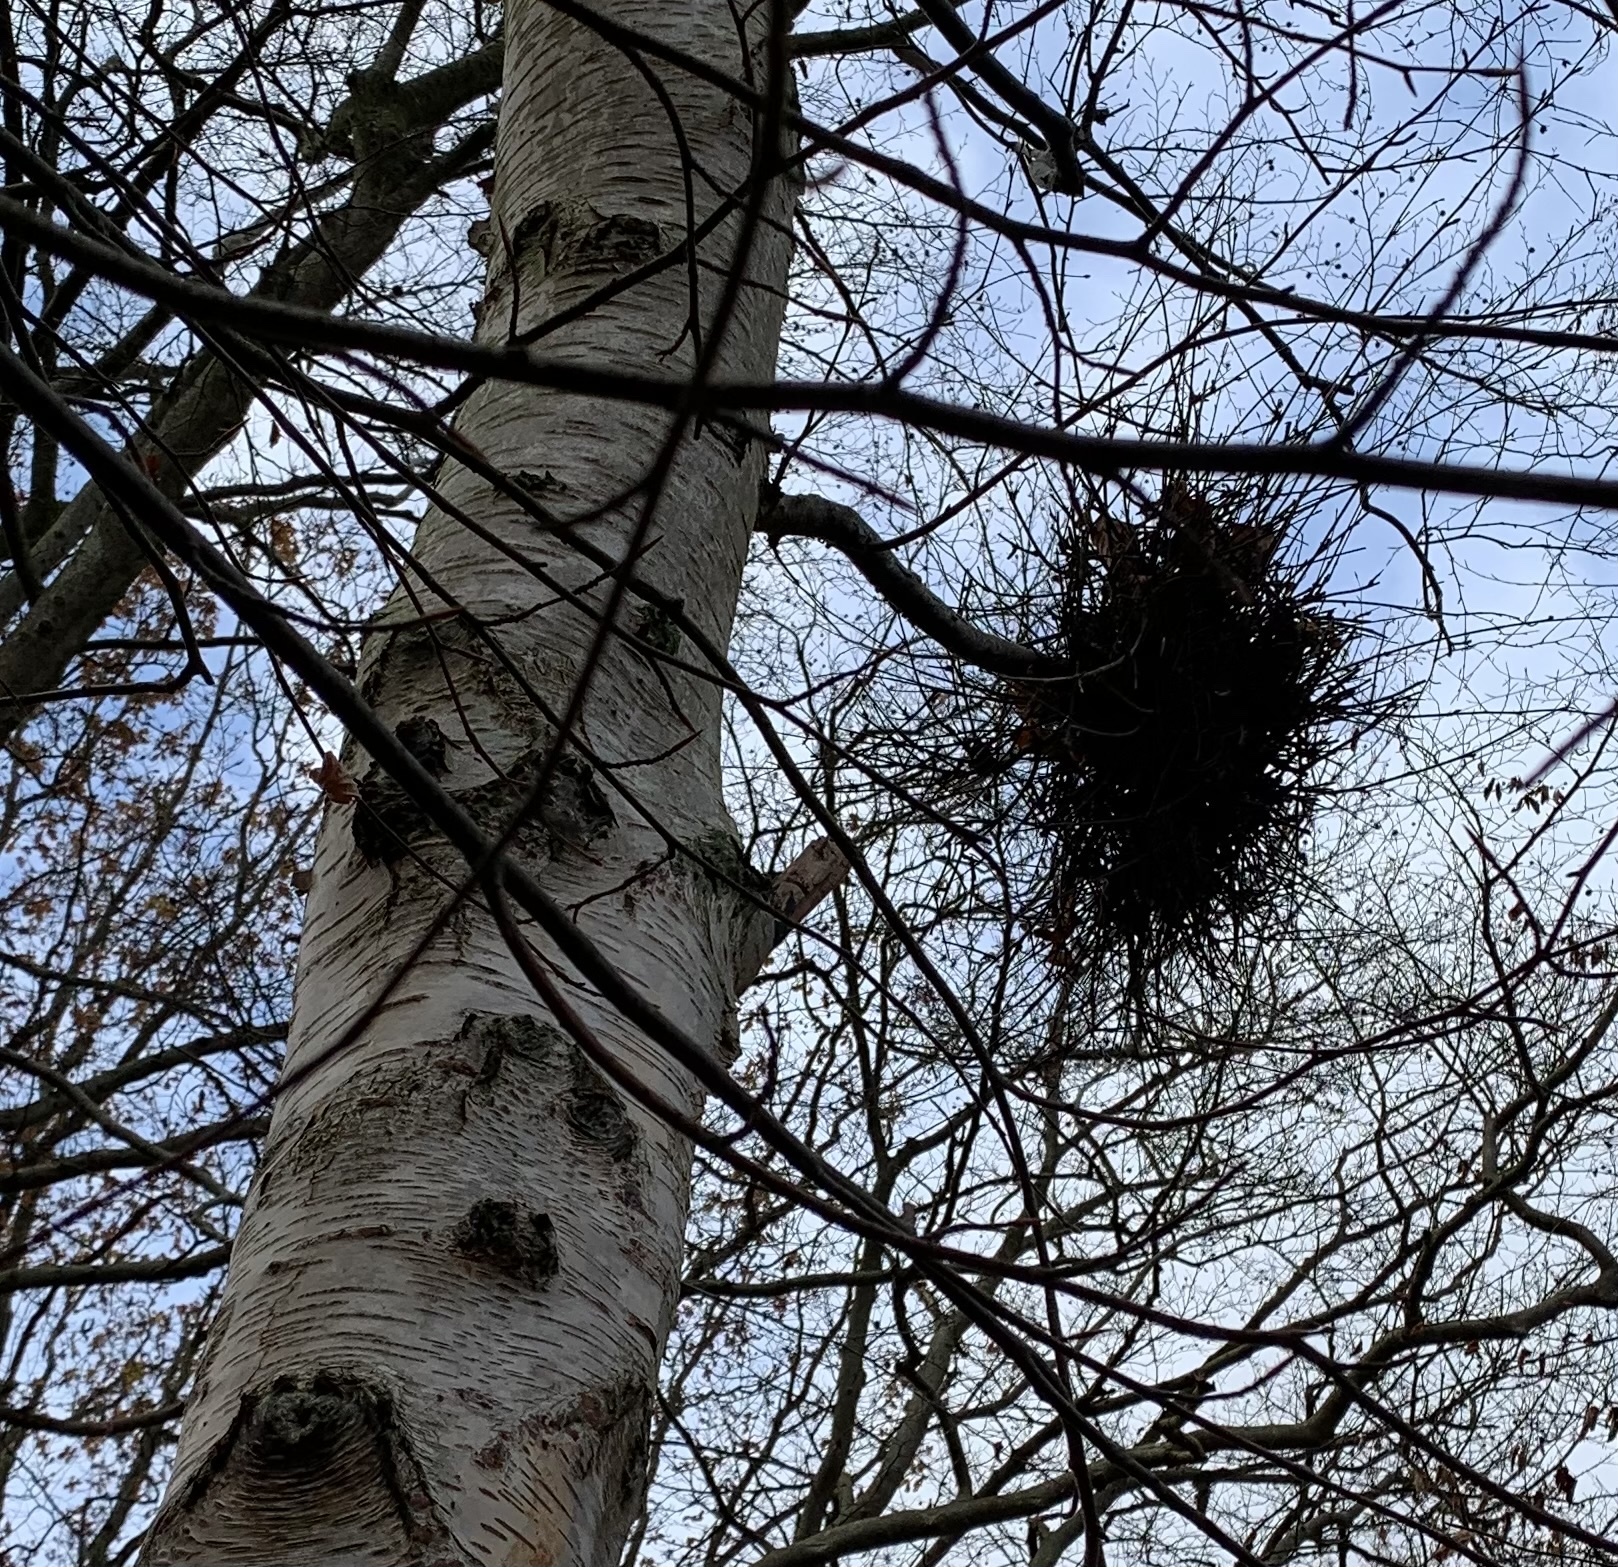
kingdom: Fungi
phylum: Ascomycota
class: Taphrinomycetes
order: Taphrinales
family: Taphrinaceae
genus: Taphrina
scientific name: Taphrina betulina
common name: Birch besom
